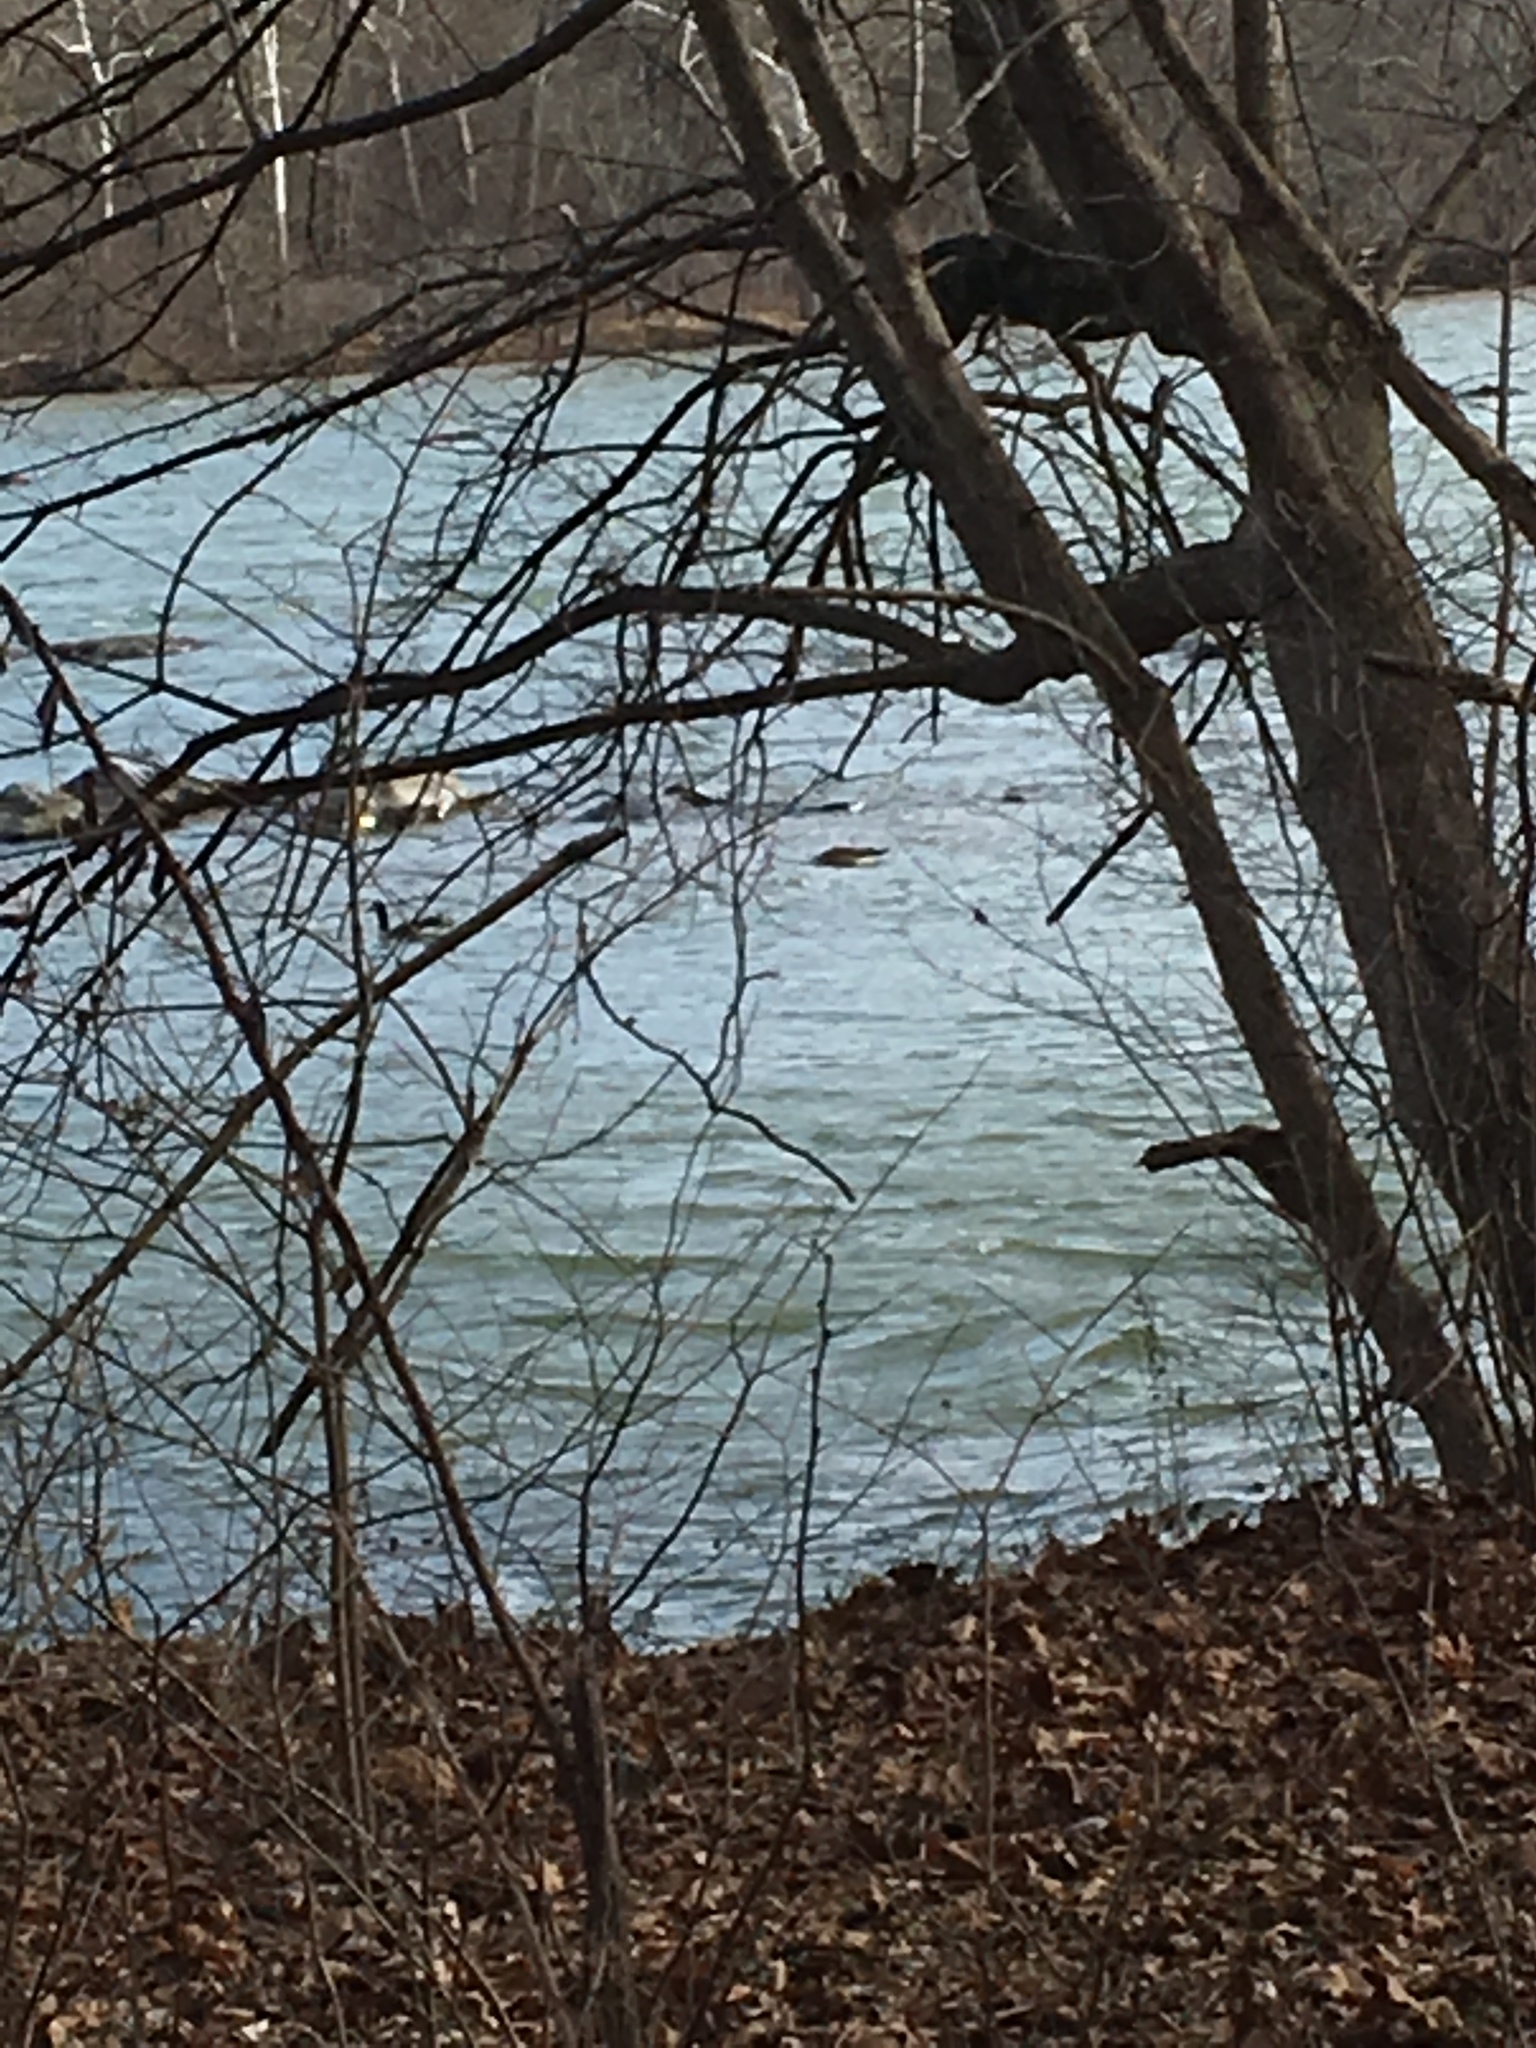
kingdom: Animalia
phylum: Chordata
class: Aves
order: Anseriformes
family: Anatidae
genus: Branta
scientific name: Branta canadensis
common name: Canada goose
